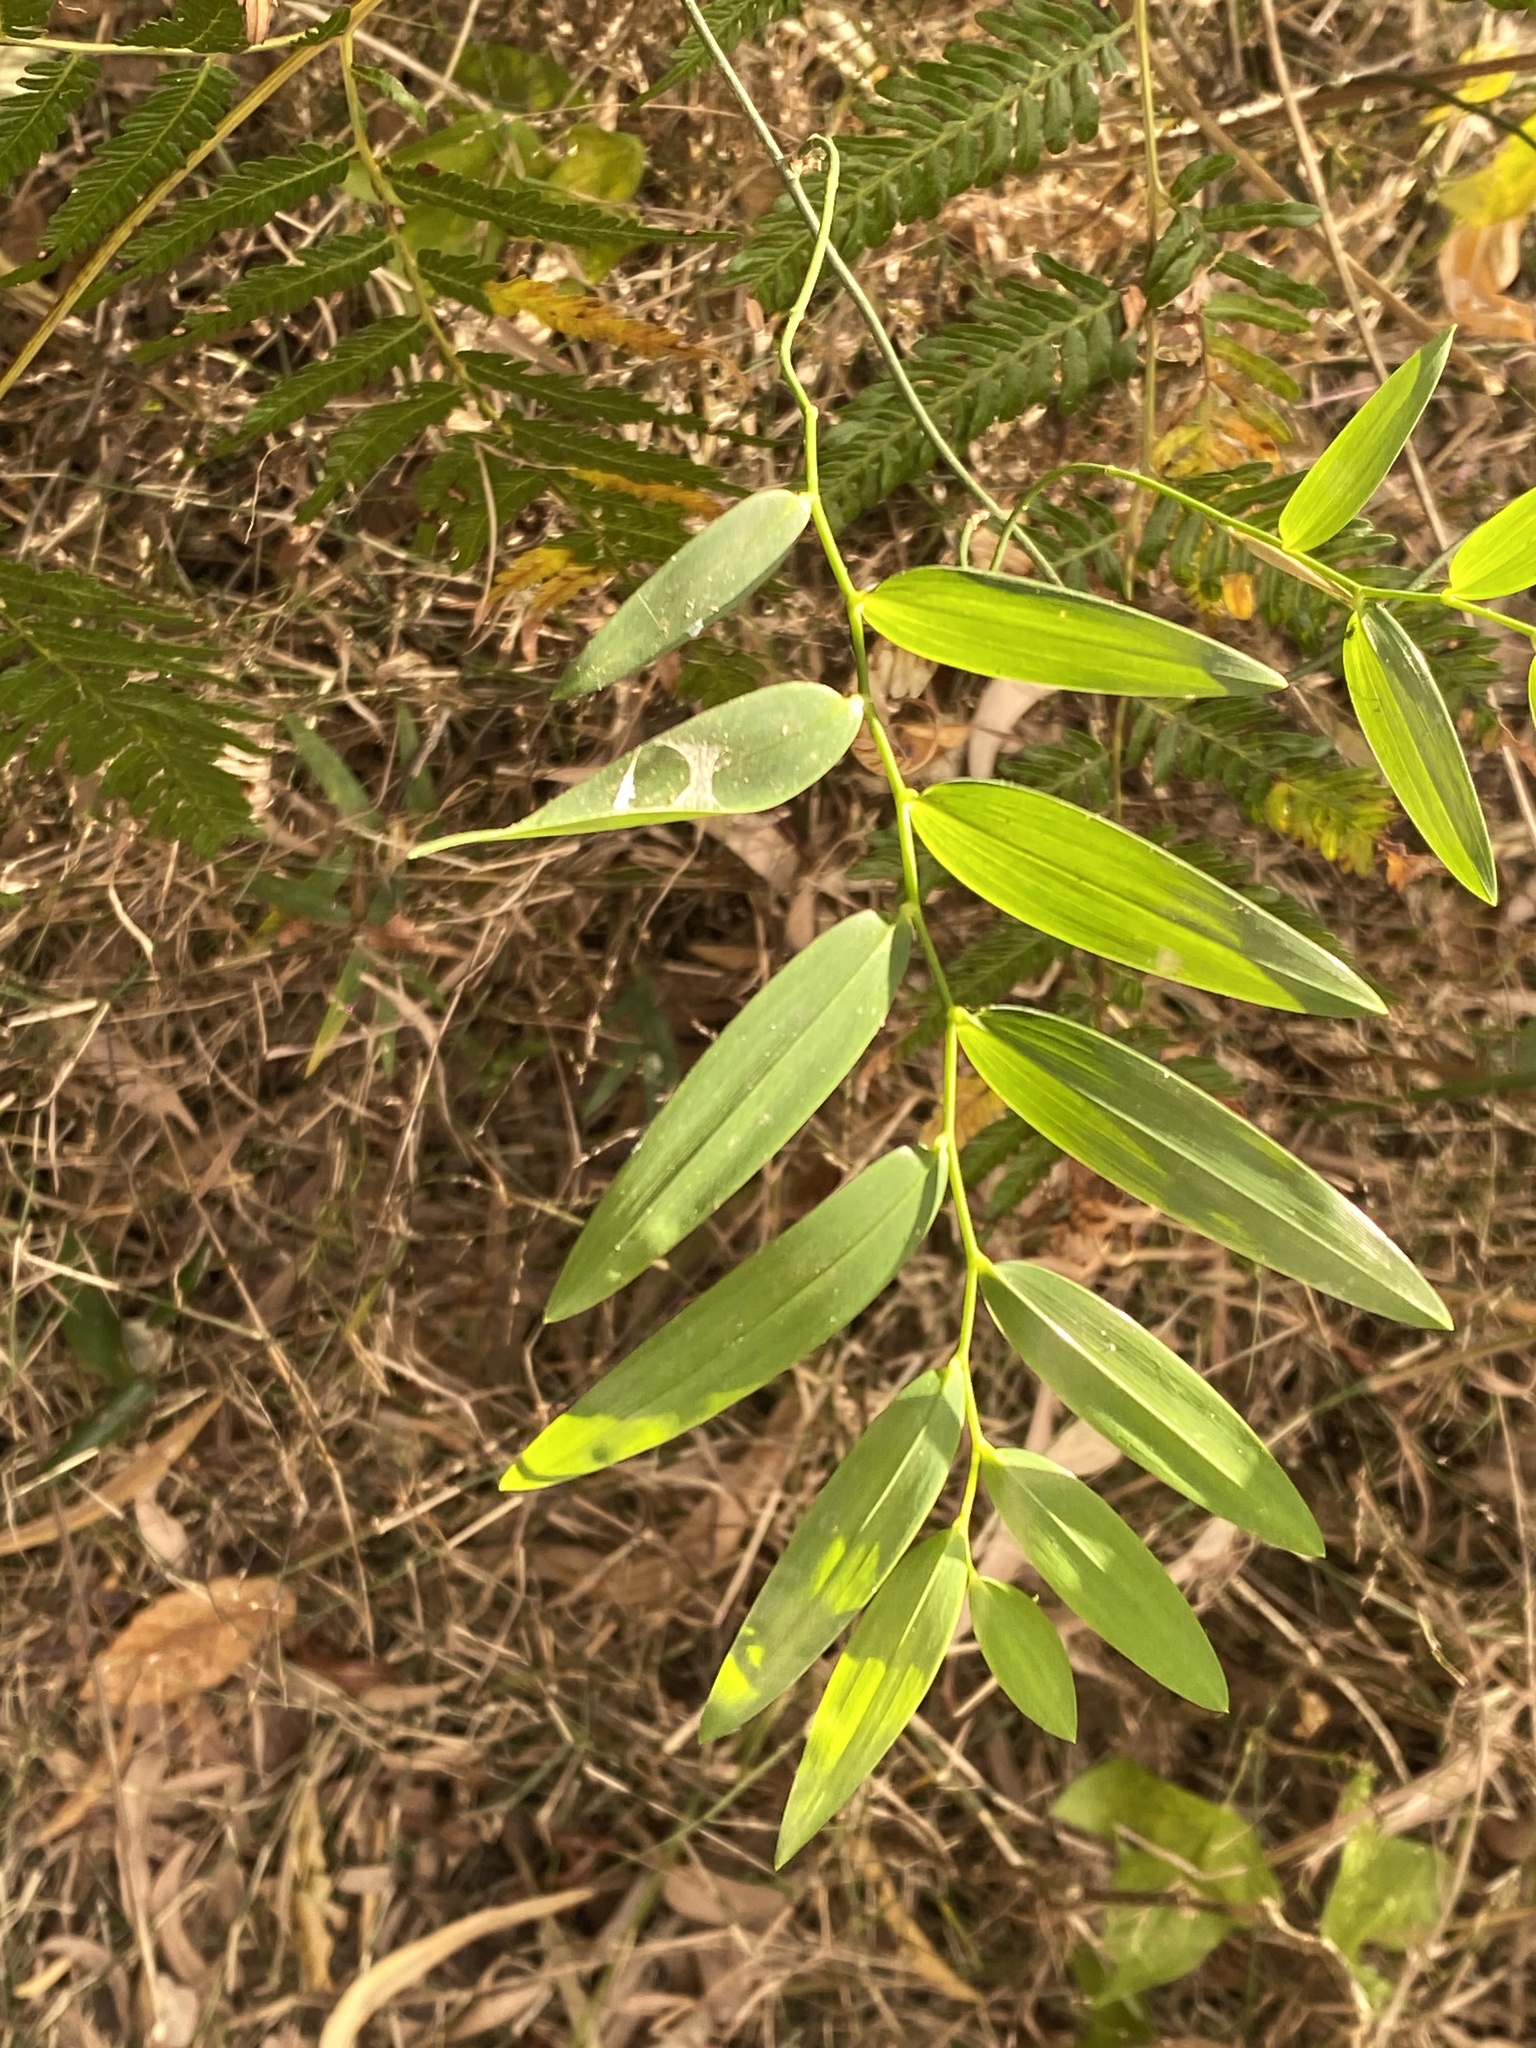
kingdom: Plantae
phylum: Tracheophyta
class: Liliopsida
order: Asparagales
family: Asphodelaceae
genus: Geitonoplesium
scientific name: Geitonoplesium cymosum
